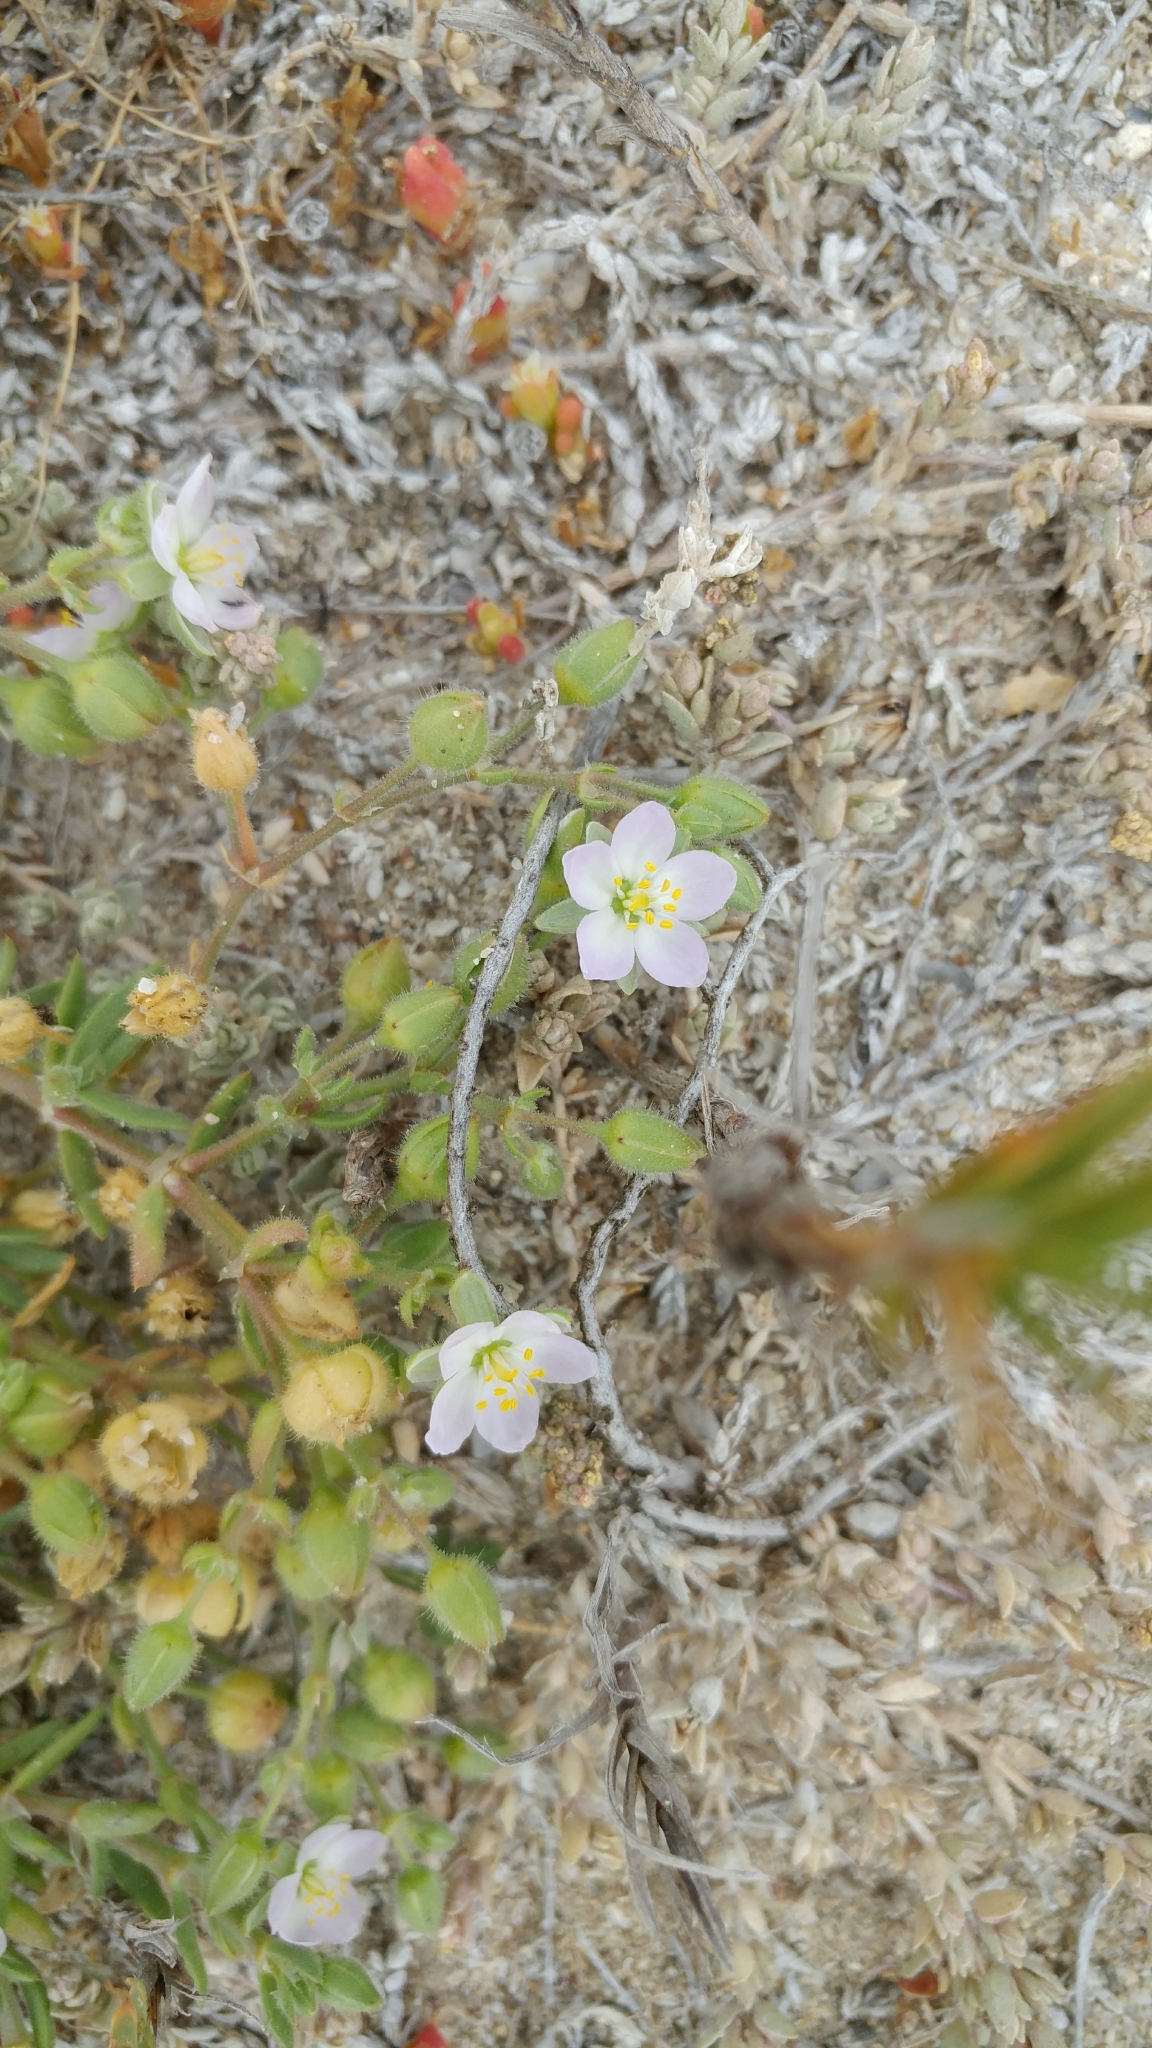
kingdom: Plantae
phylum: Tracheophyta
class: Magnoliopsida
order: Caryophyllales
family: Caryophyllaceae
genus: Spergularia
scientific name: Spergularia macrotheca
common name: Beach sand-spurrey
